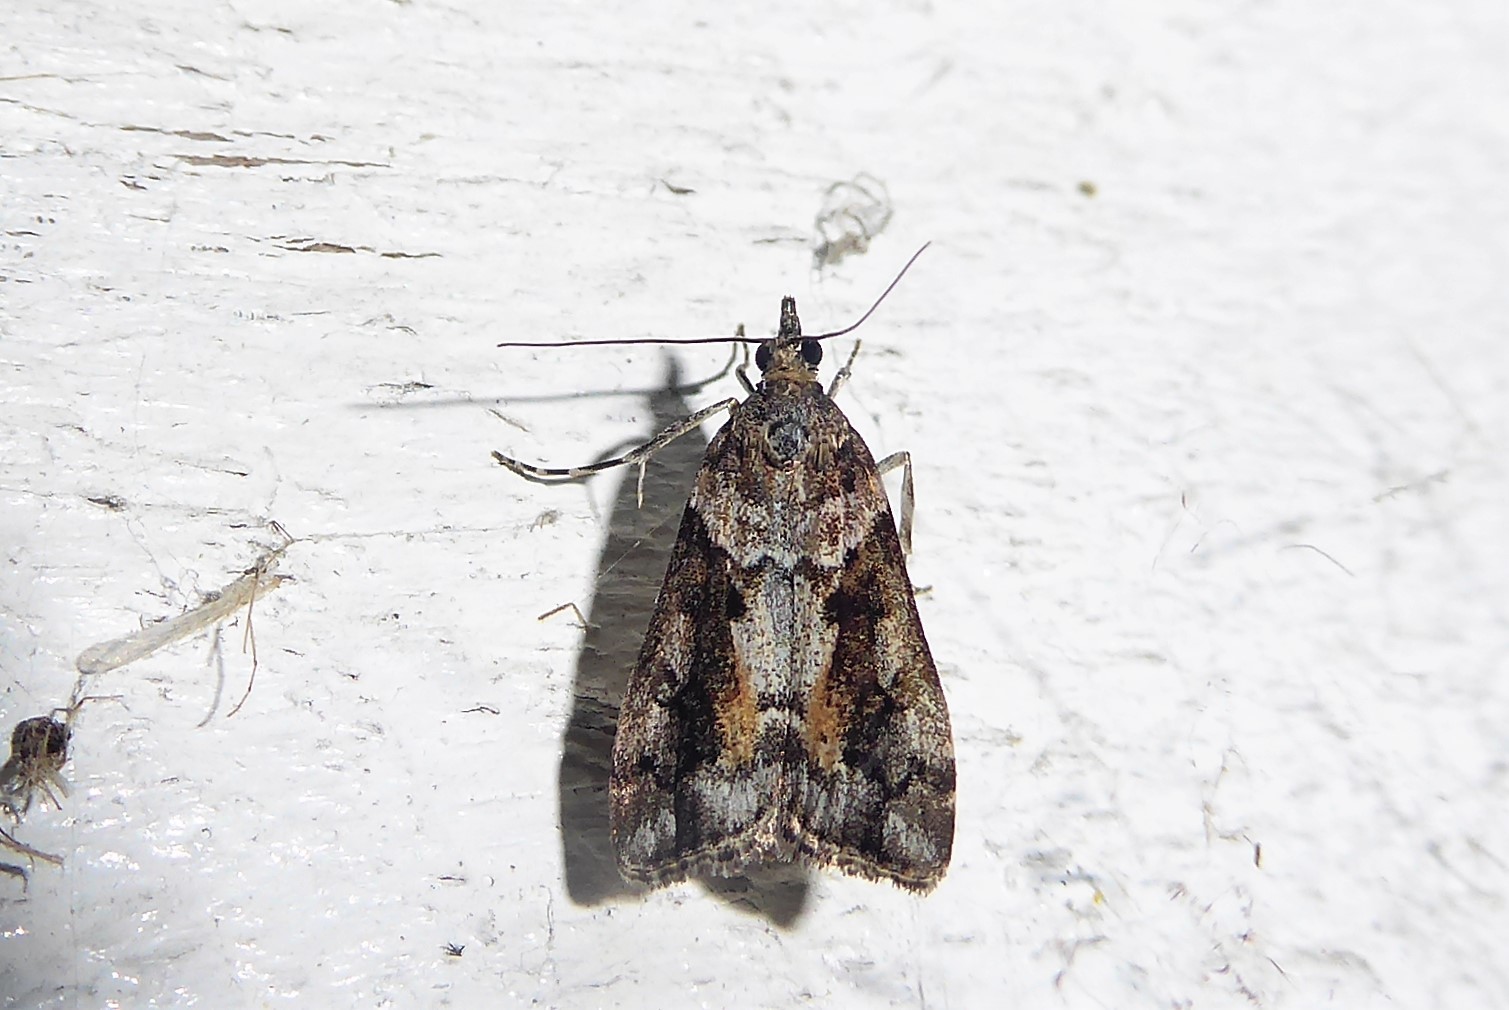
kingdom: Animalia
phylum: Arthropoda
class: Insecta
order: Lepidoptera
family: Crambidae
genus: Eudonia
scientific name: Eudonia submarginalis
